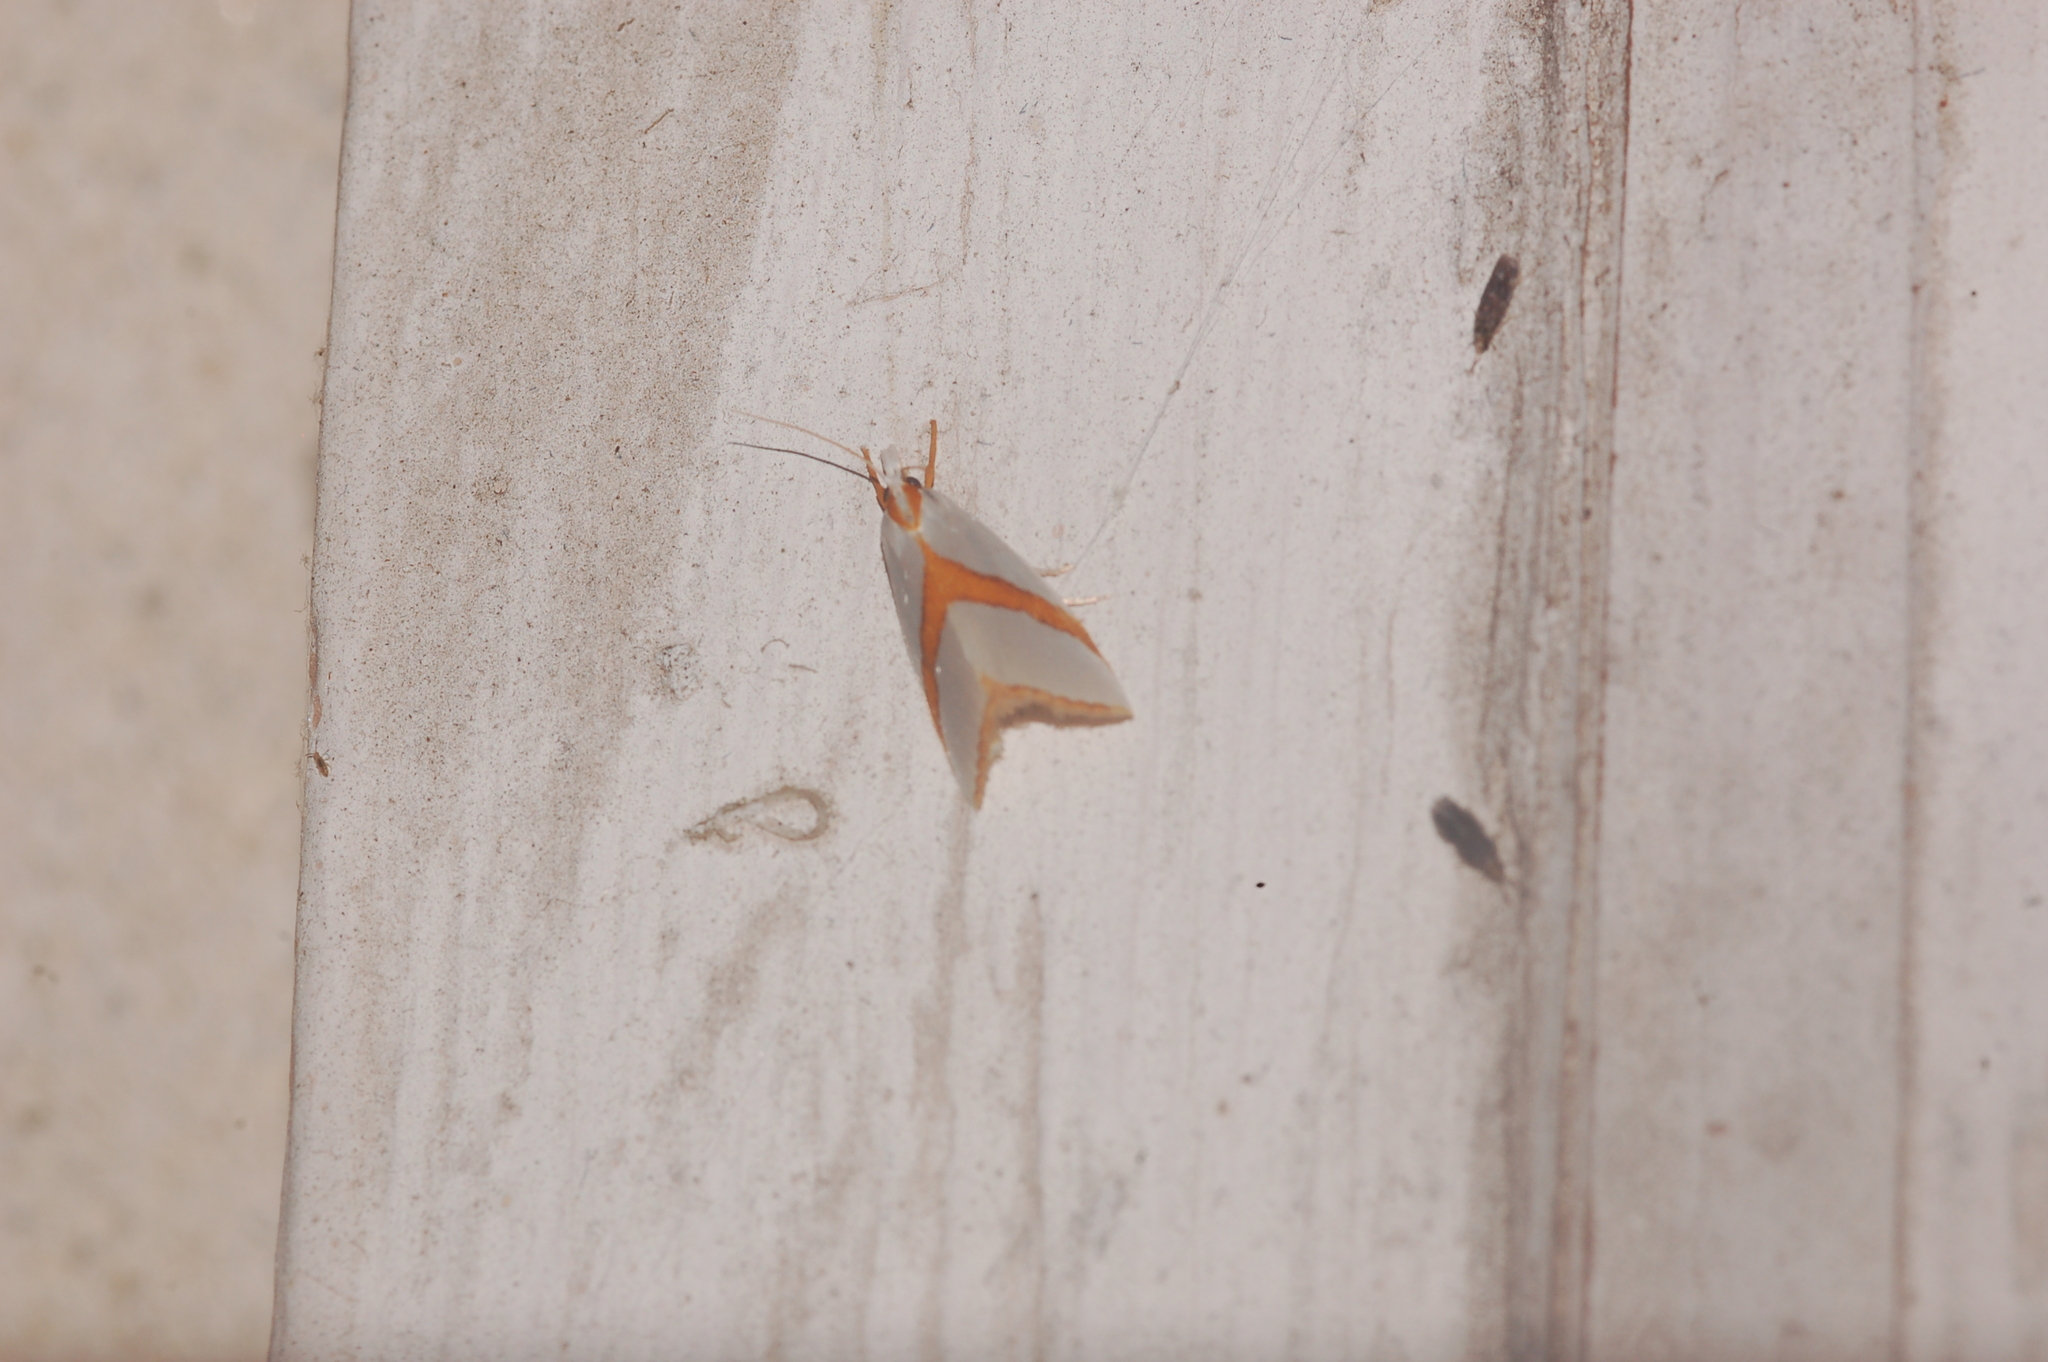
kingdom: Animalia
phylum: Arthropoda
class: Insecta
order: Lepidoptera
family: Crambidae
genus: Vaxi
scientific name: Vaxi critica
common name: Straight-lined vaxi moth
